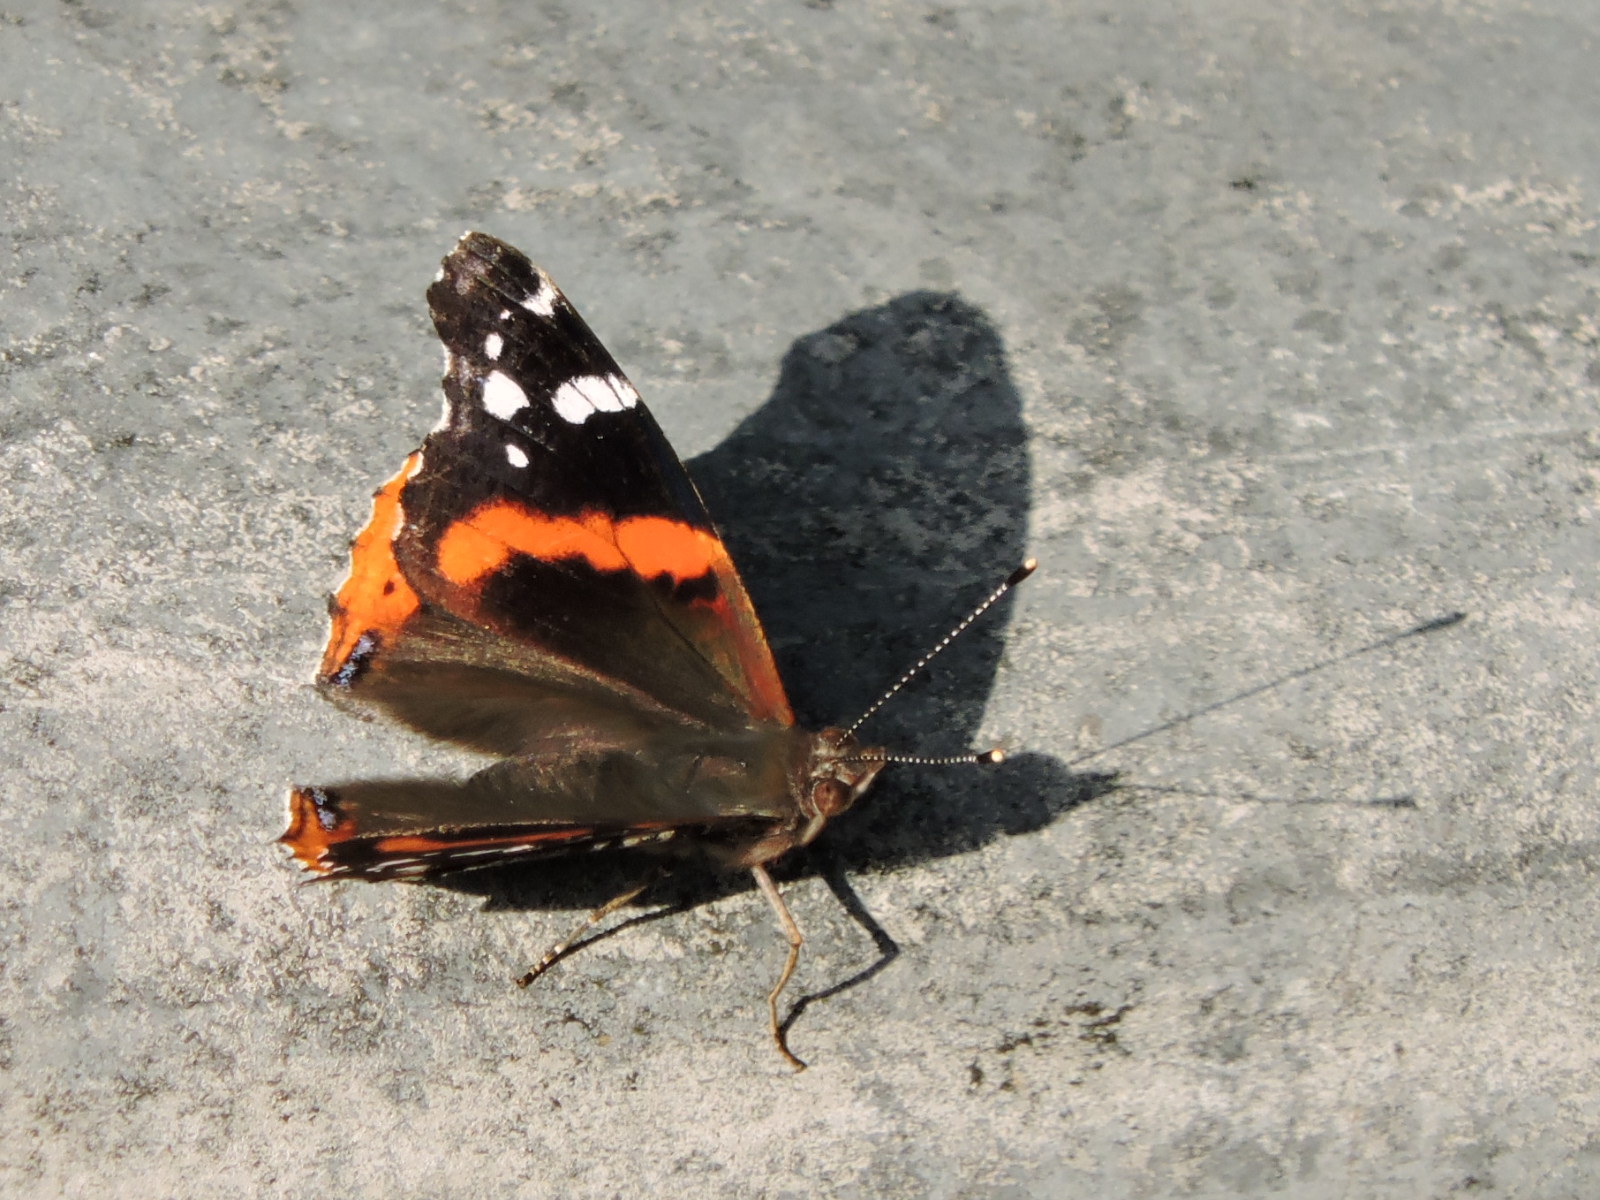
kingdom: Animalia
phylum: Arthropoda
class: Insecta
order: Lepidoptera
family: Nymphalidae
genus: Vanessa
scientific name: Vanessa atalanta
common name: Red admiral
